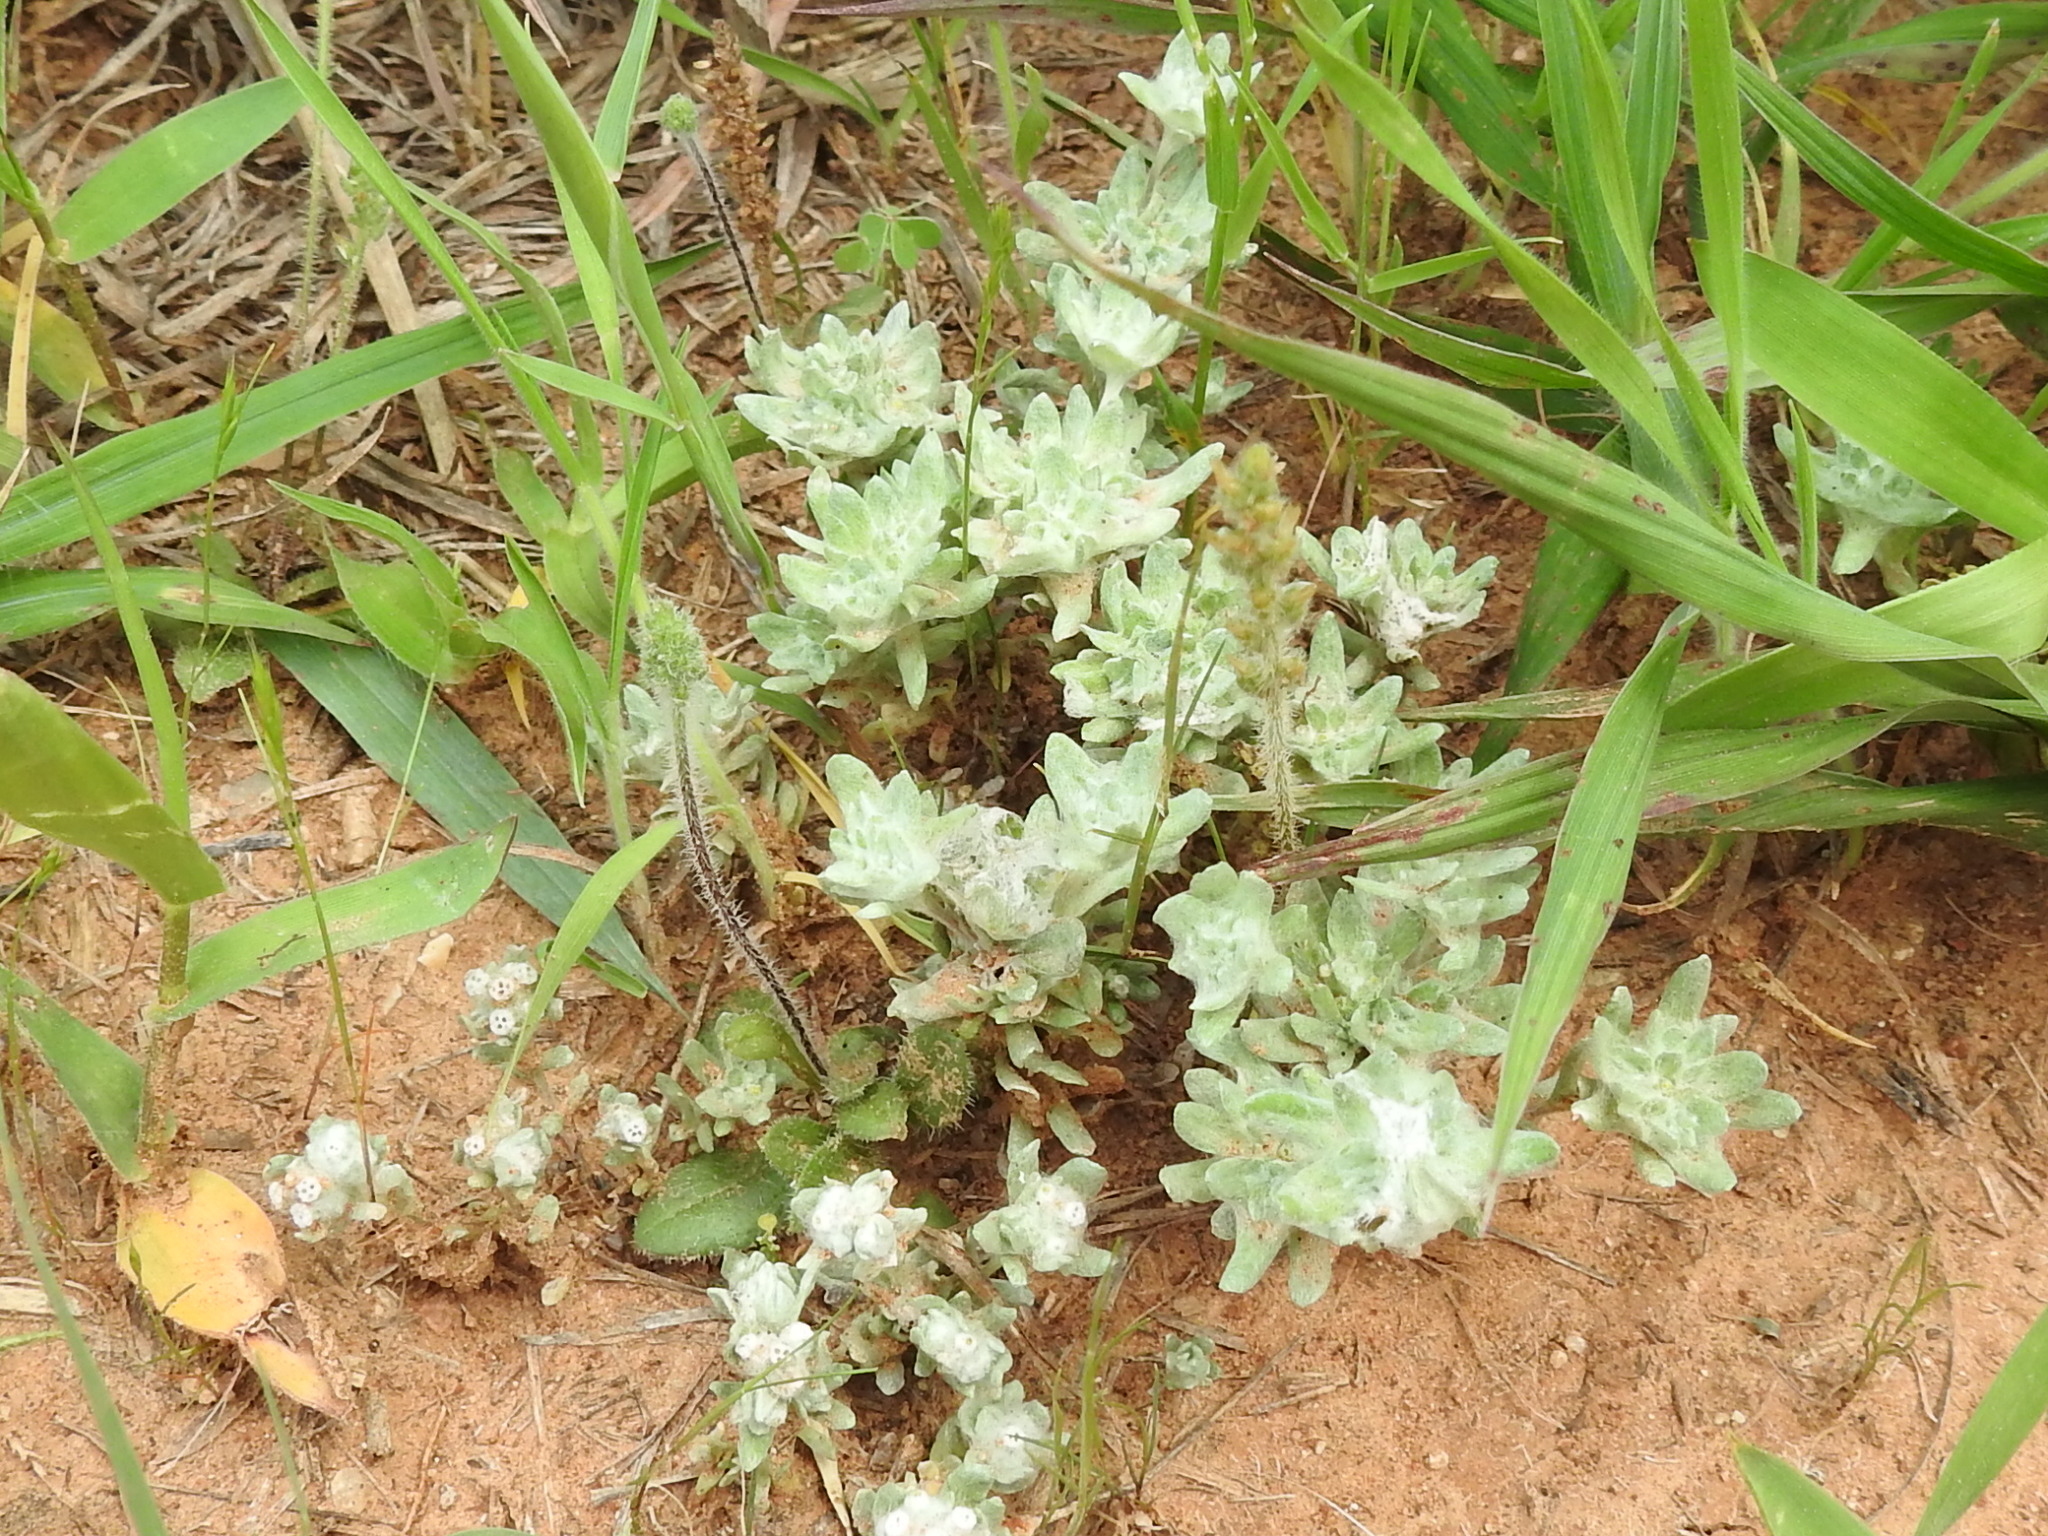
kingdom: Plantae
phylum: Tracheophyta
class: Magnoliopsida
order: Asterales
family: Asteraceae
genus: Diaperia
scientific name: Diaperia prolifera
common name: Big-head rabbit-tobacco
